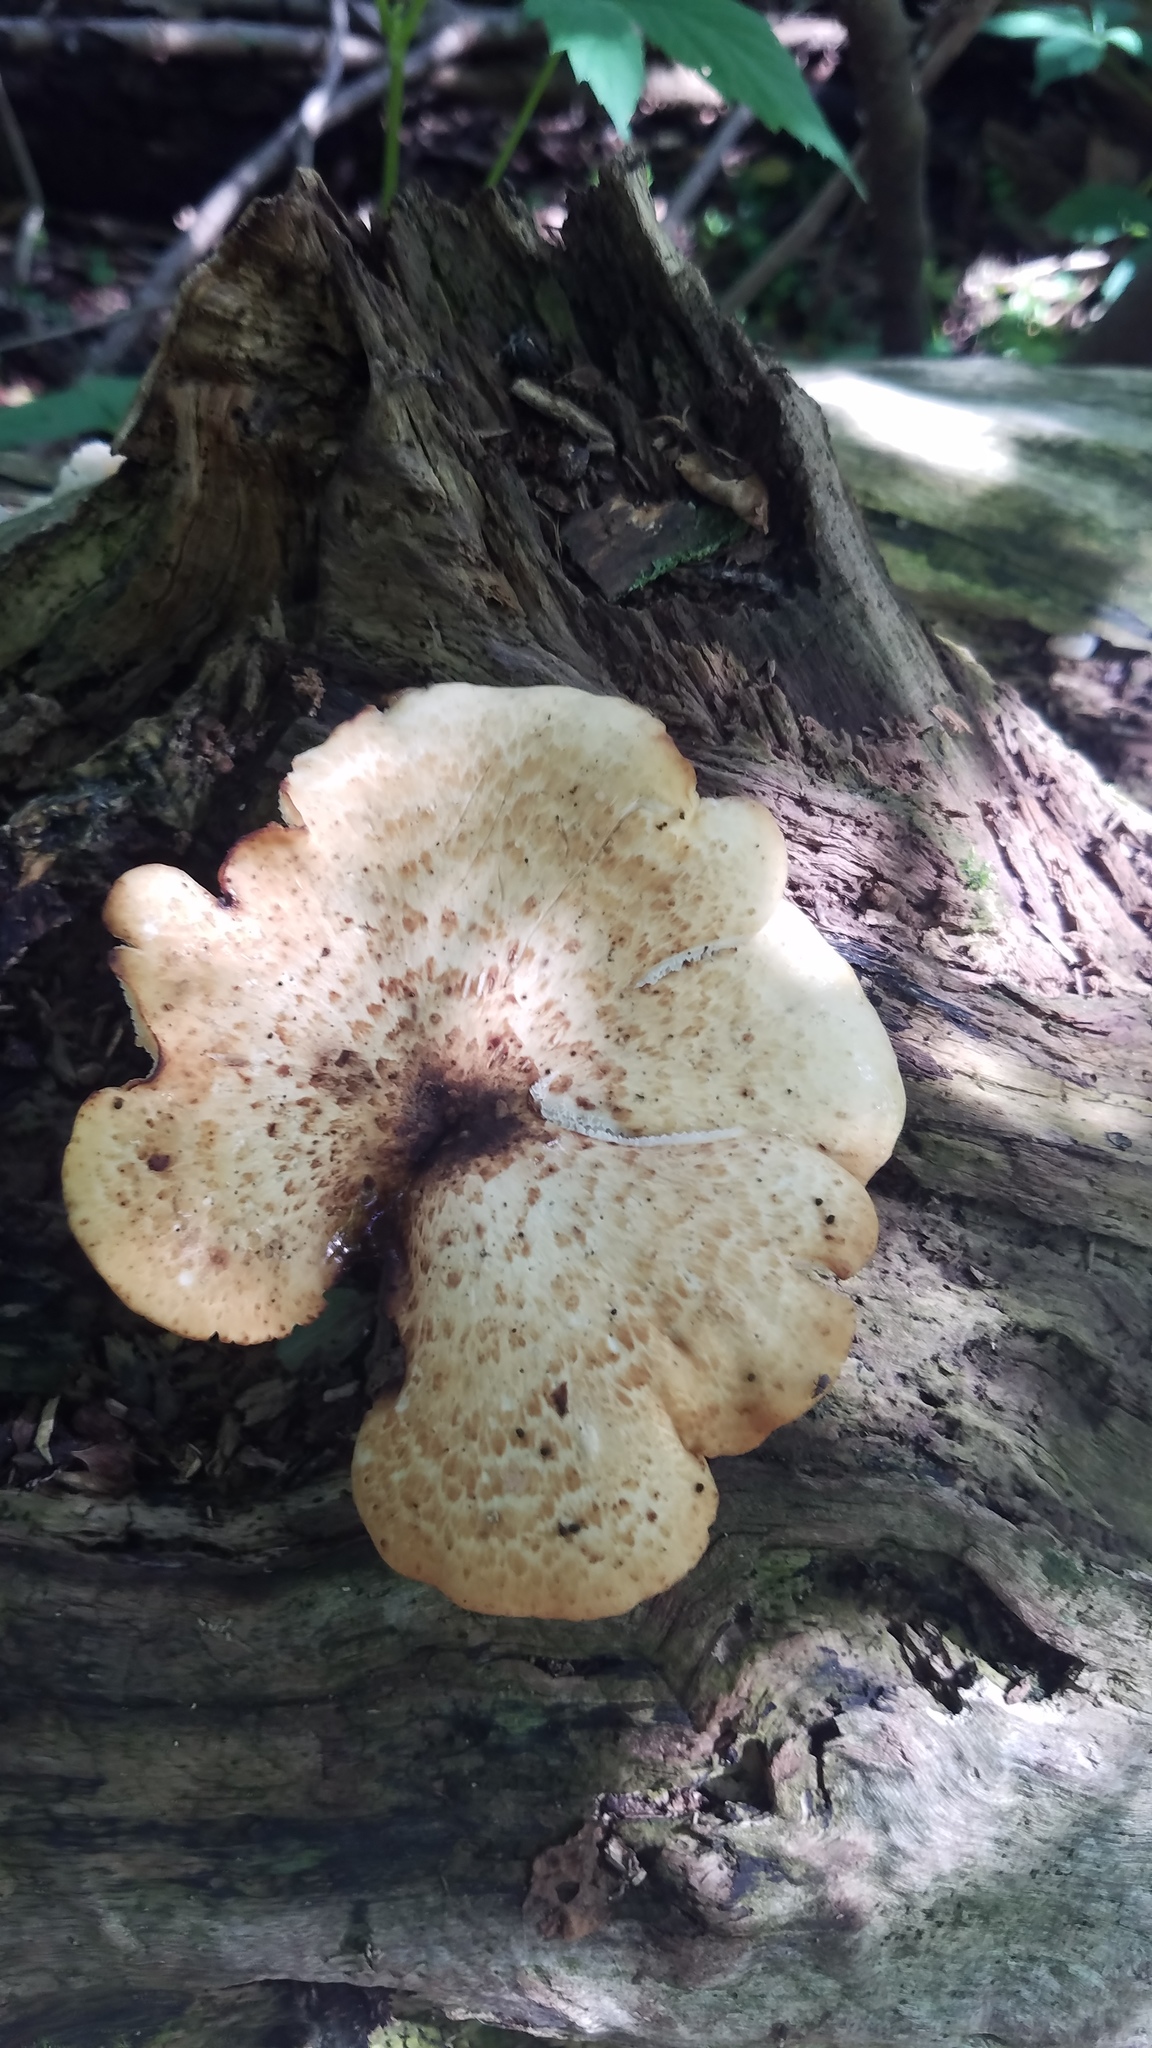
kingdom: Fungi
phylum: Basidiomycota
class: Agaricomycetes
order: Polyporales
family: Polyporaceae
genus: Cerioporus
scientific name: Cerioporus squamosus
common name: Dryad's saddle
